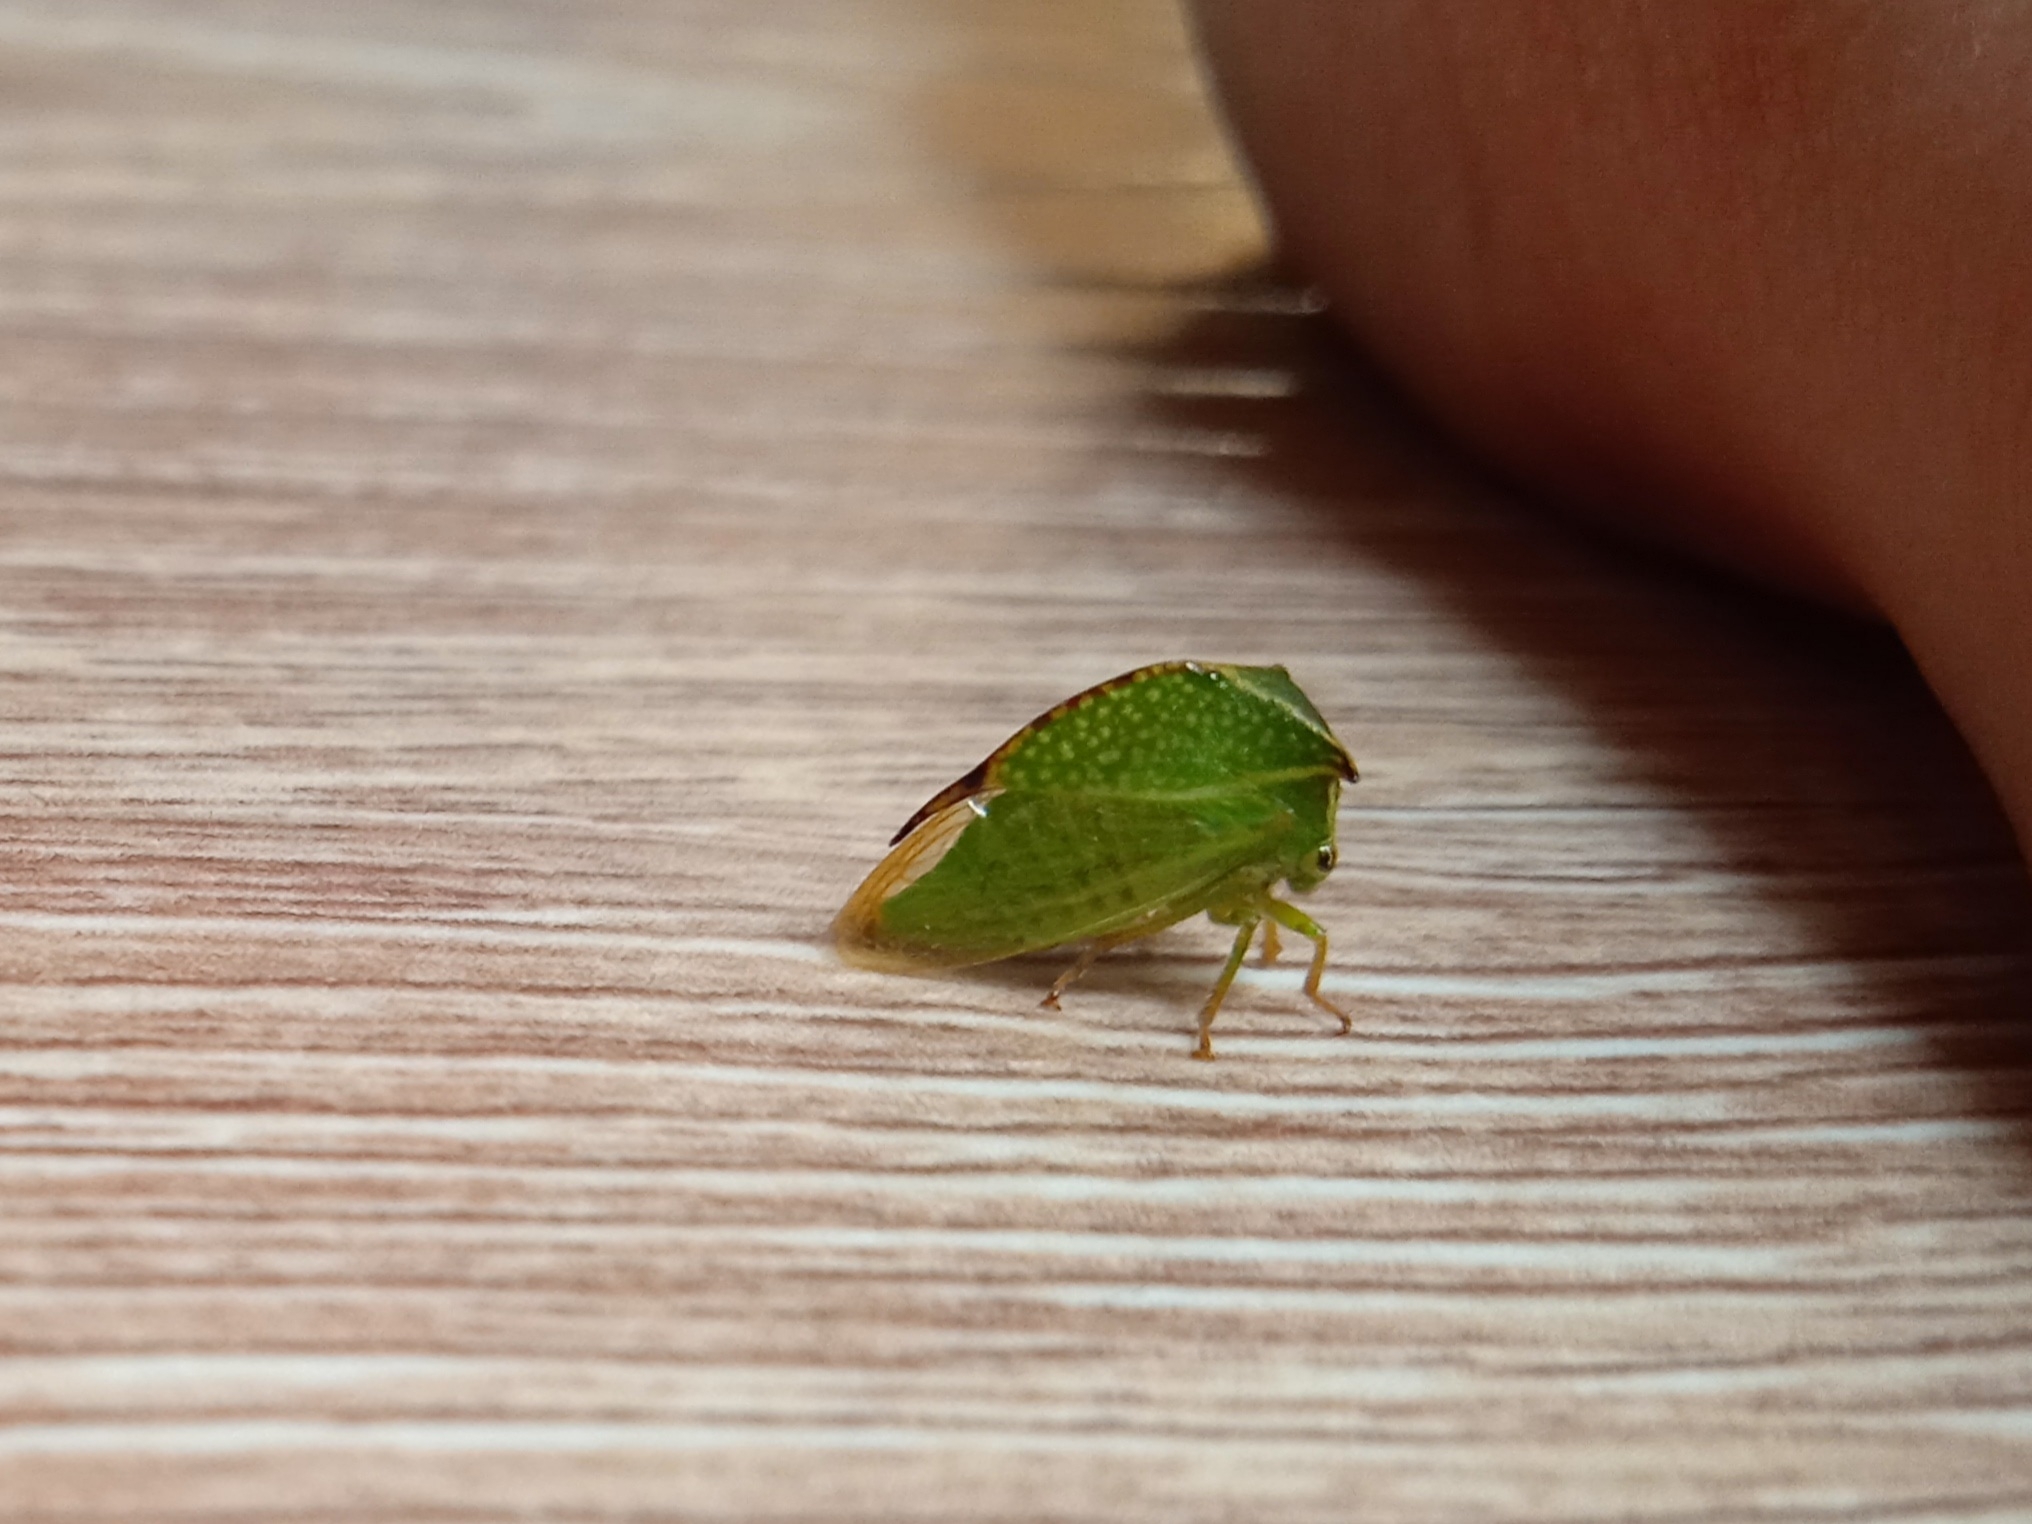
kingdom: Animalia
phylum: Arthropoda
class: Insecta
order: Hemiptera
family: Membracidae
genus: Stictocephala
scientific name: Stictocephala bisonia
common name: American buffalo treehopper
